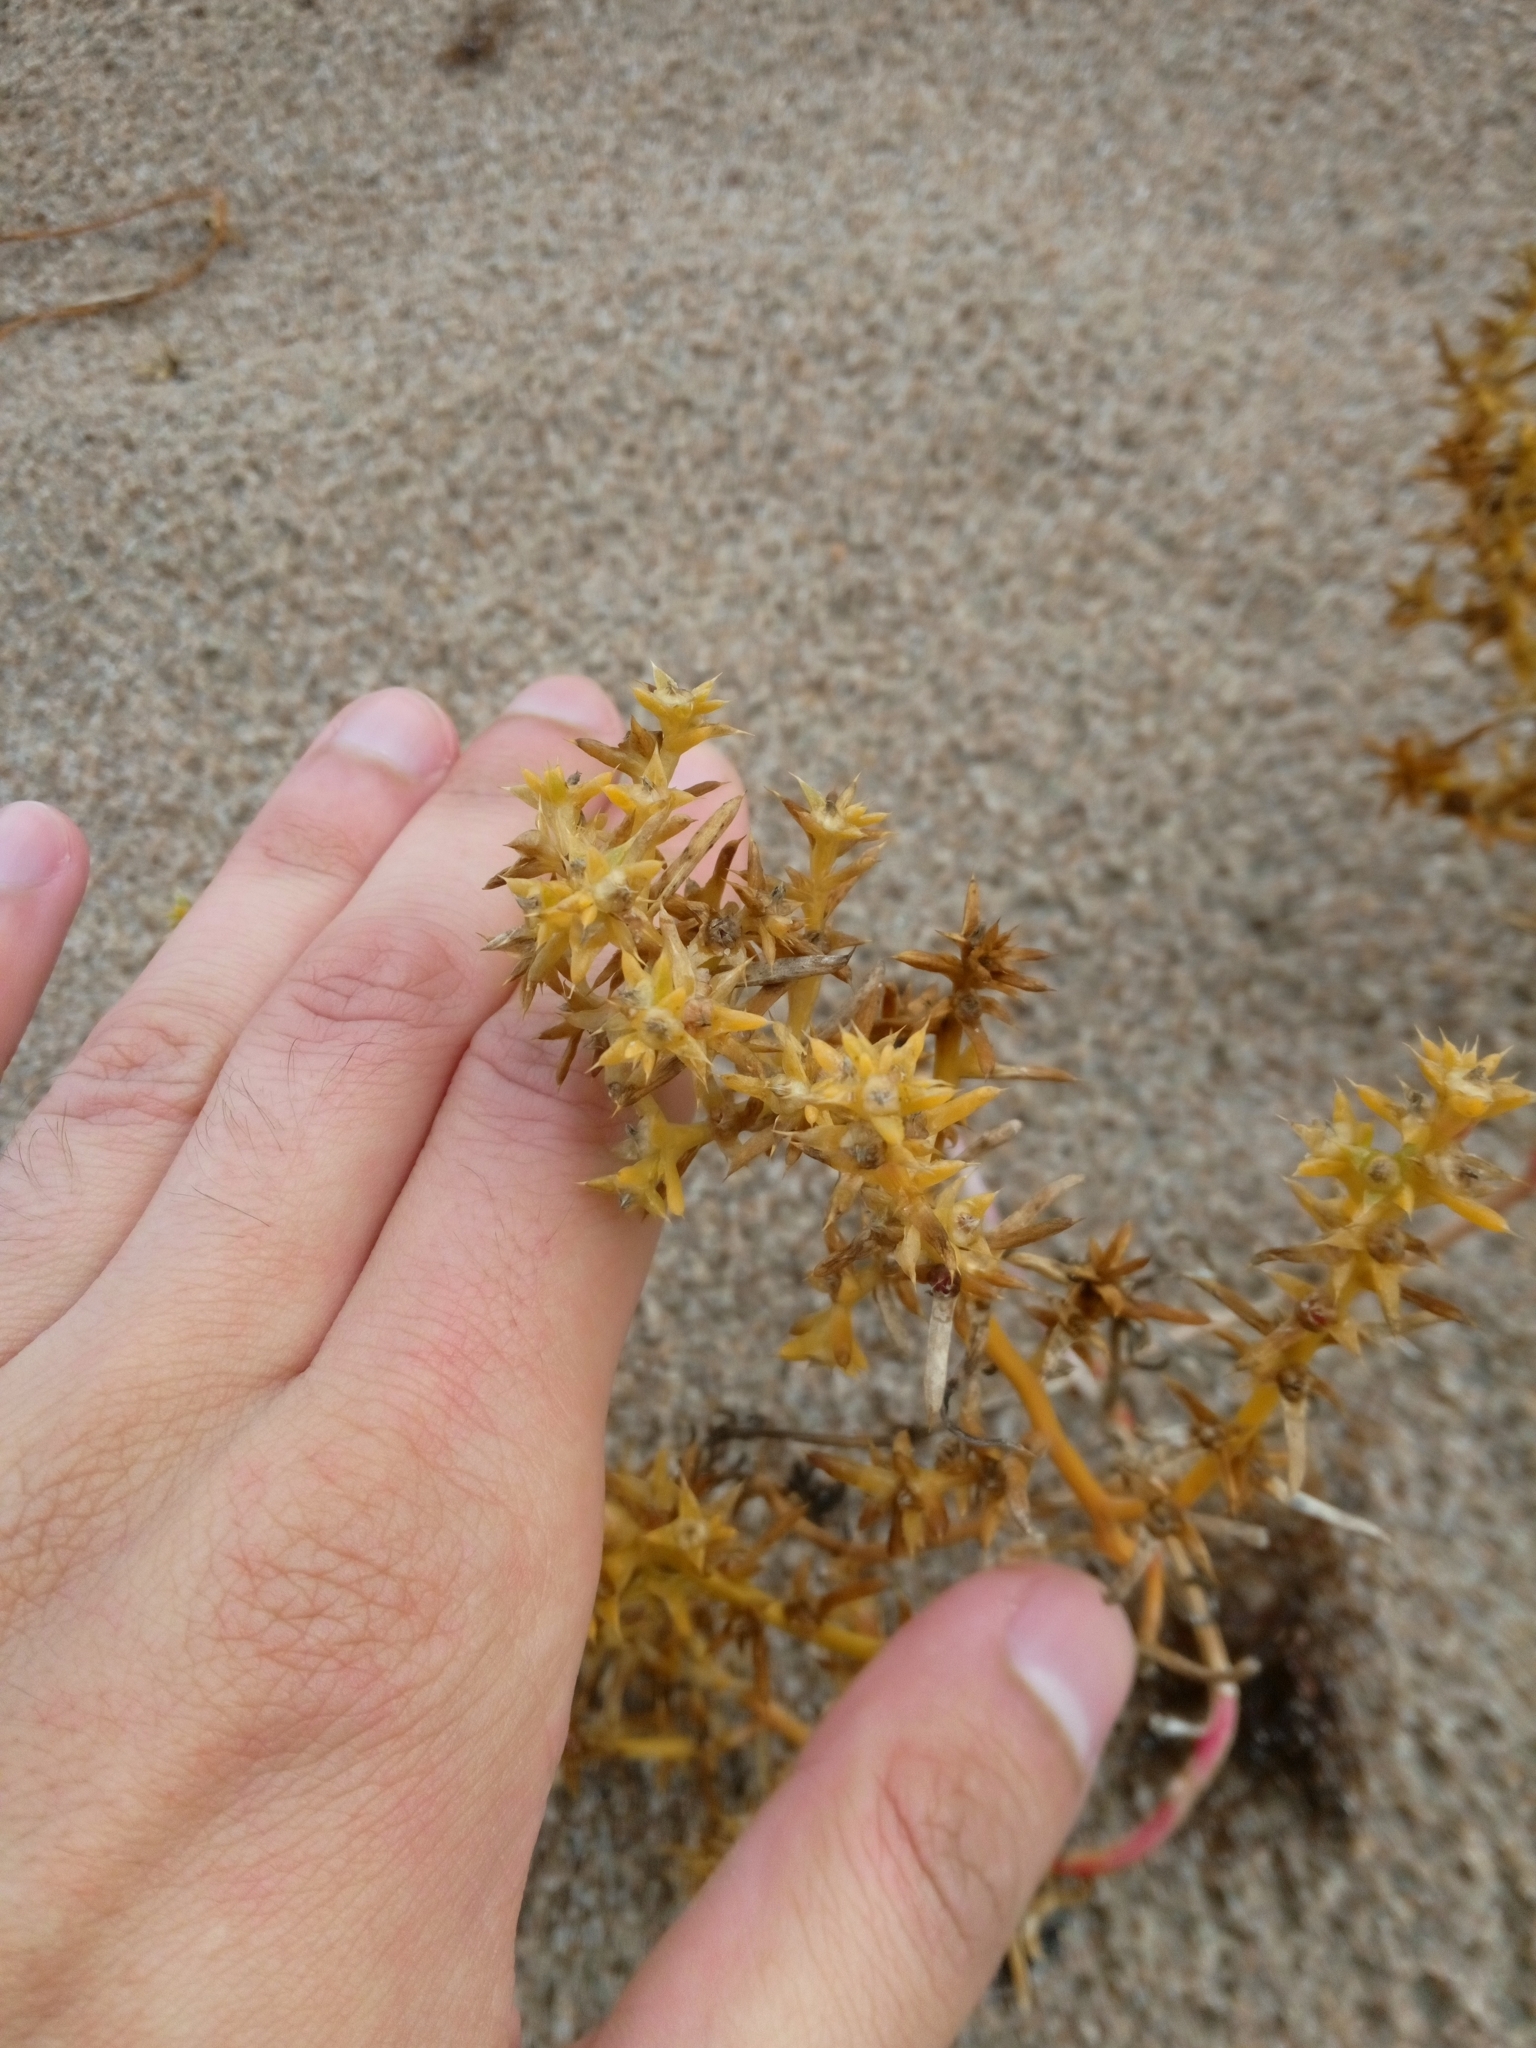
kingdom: Plantae
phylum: Tracheophyta
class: Magnoliopsida
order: Caryophyllales
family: Amaranthaceae
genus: Salsola
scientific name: Salsola kali
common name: Saltwort
